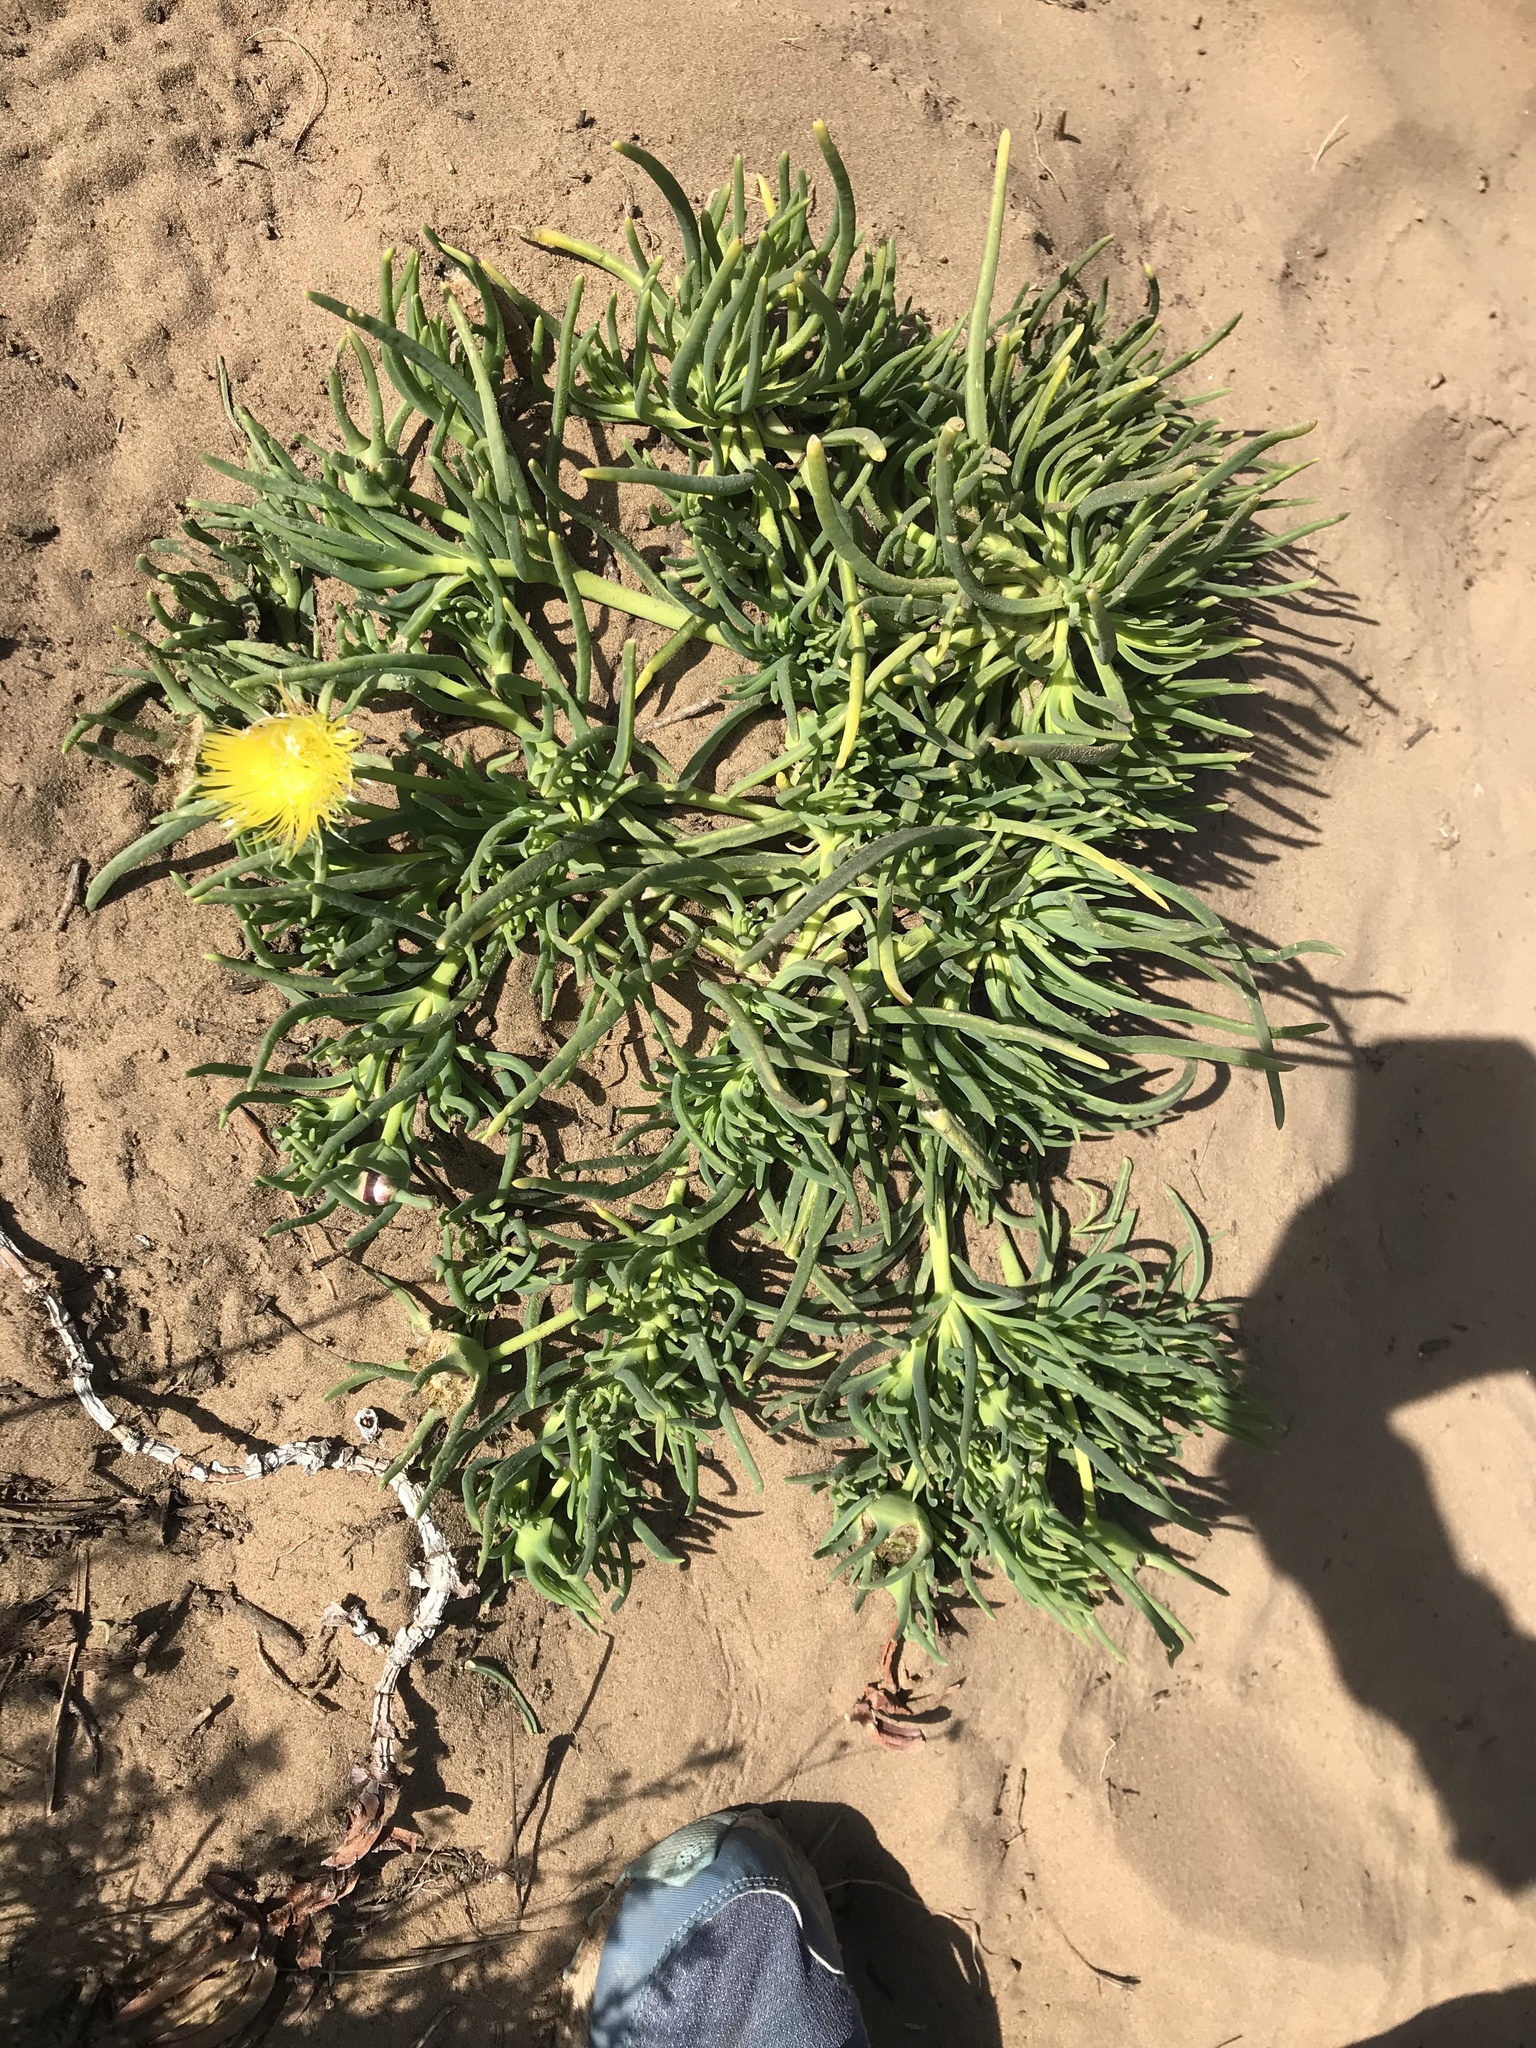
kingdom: Plantae
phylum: Tracheophyta
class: Magnoliopsida
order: Caryophyllales
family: Aizoaceae
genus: Conicosia
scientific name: Conicosia pugioniformis
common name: Narrow-leaved iceplant
